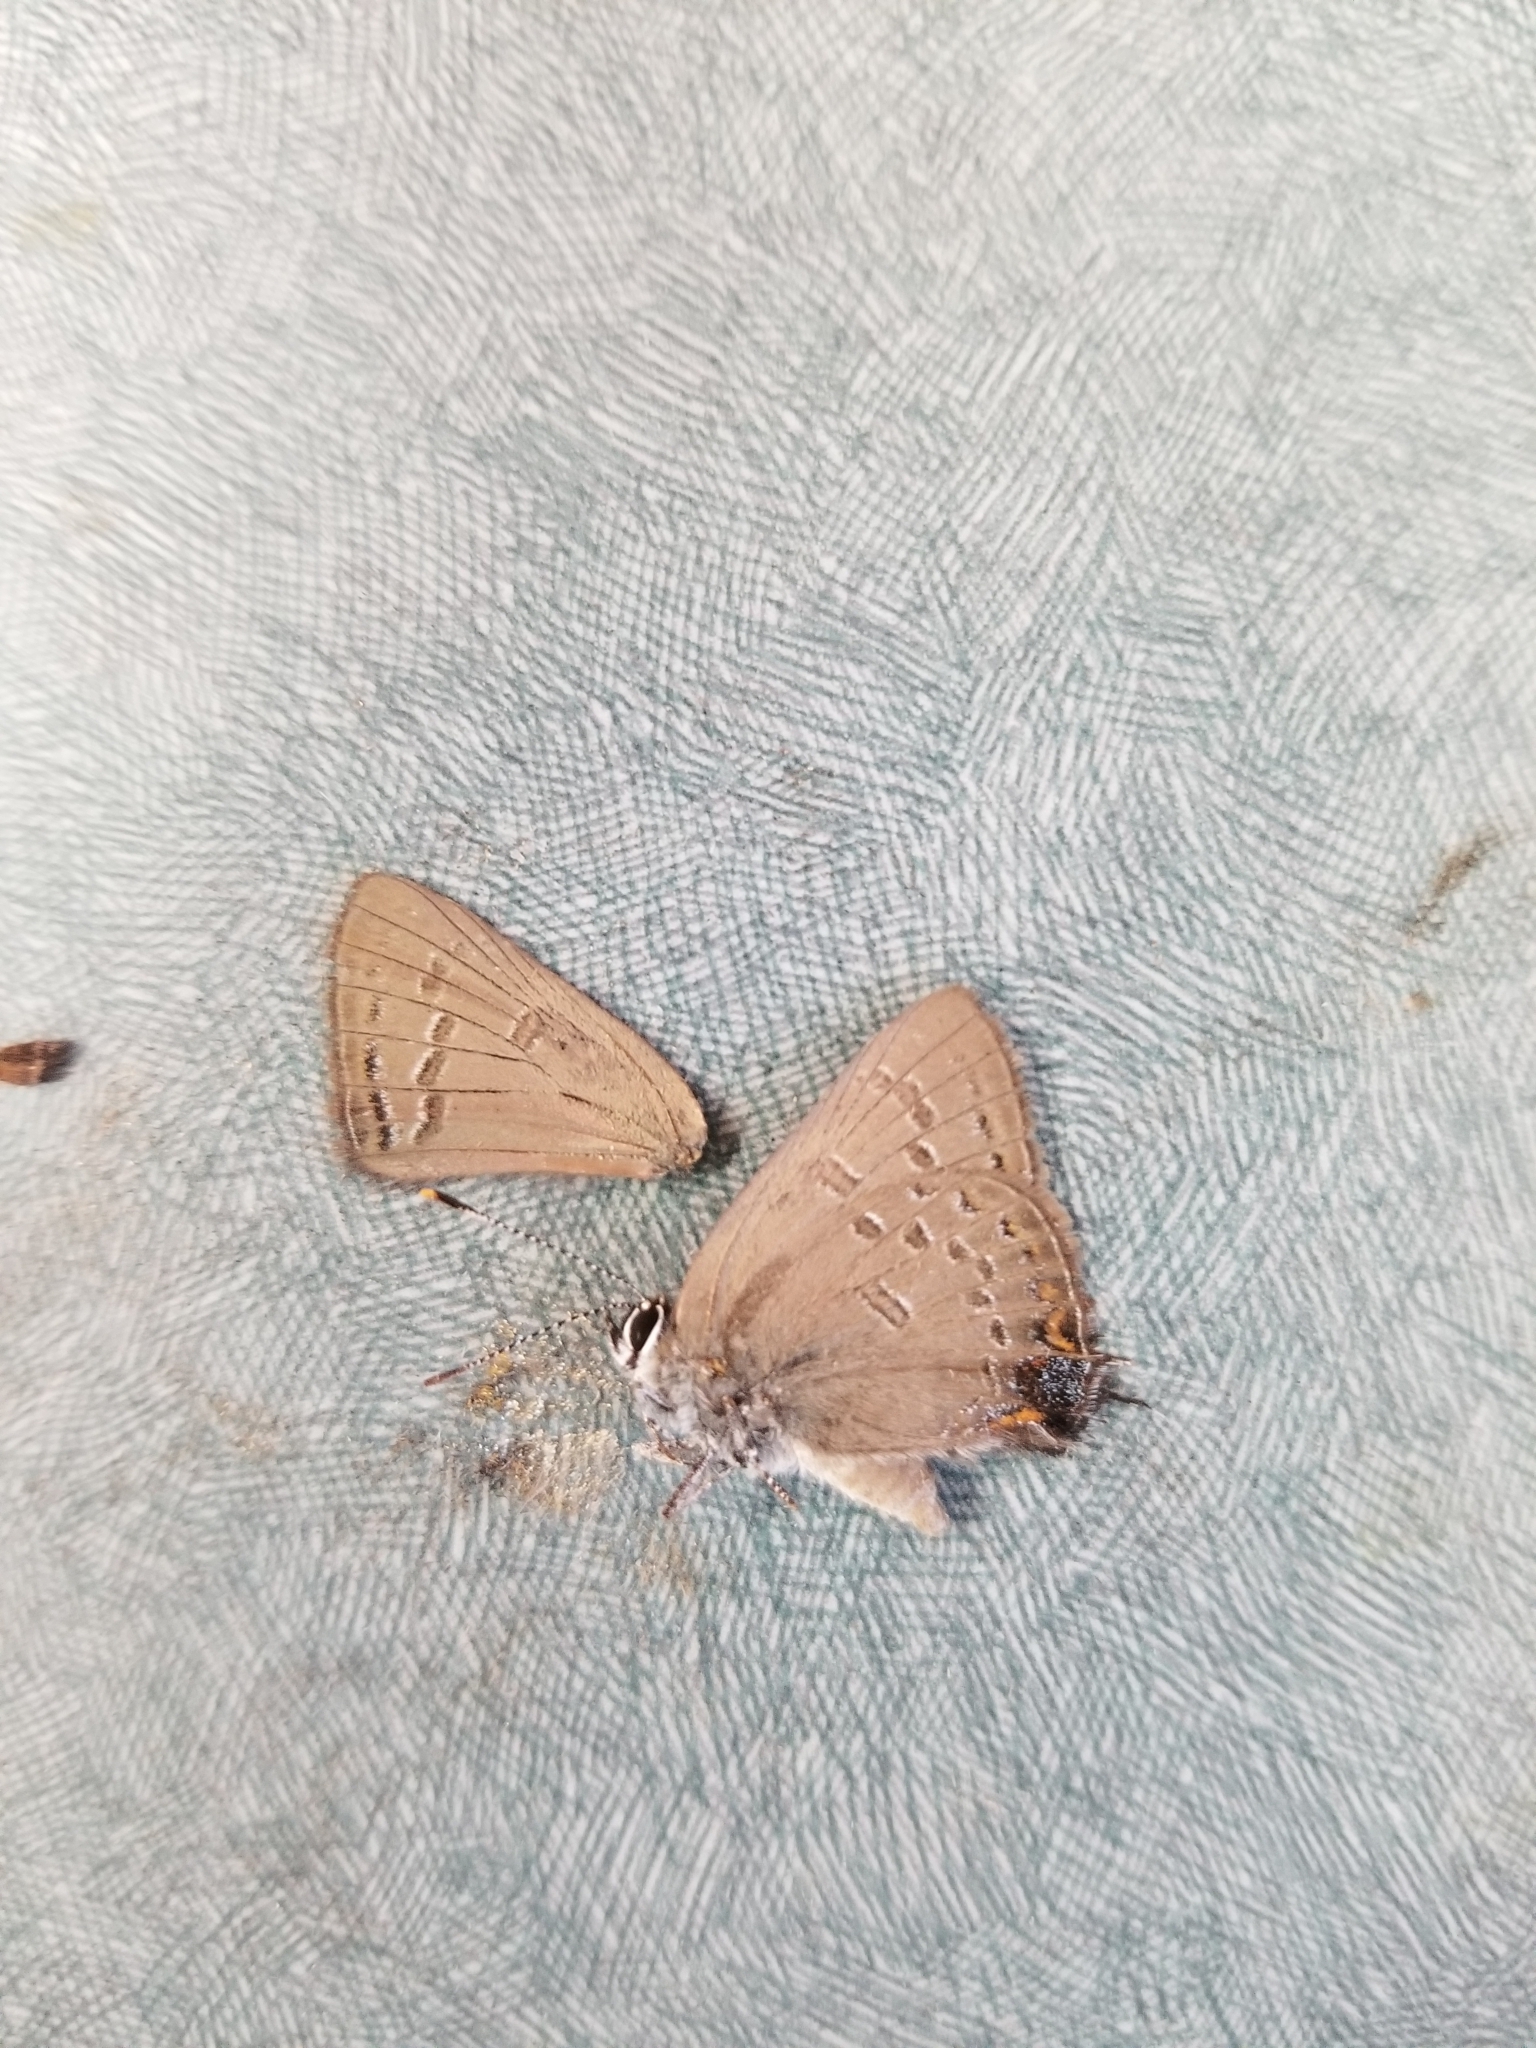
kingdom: Animalia
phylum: Arthropoda
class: Insecta
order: Lepidoptera
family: Lycaenidae
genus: Satyrium
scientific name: Satyrium edwardsii
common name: Edwards' hairstreak
